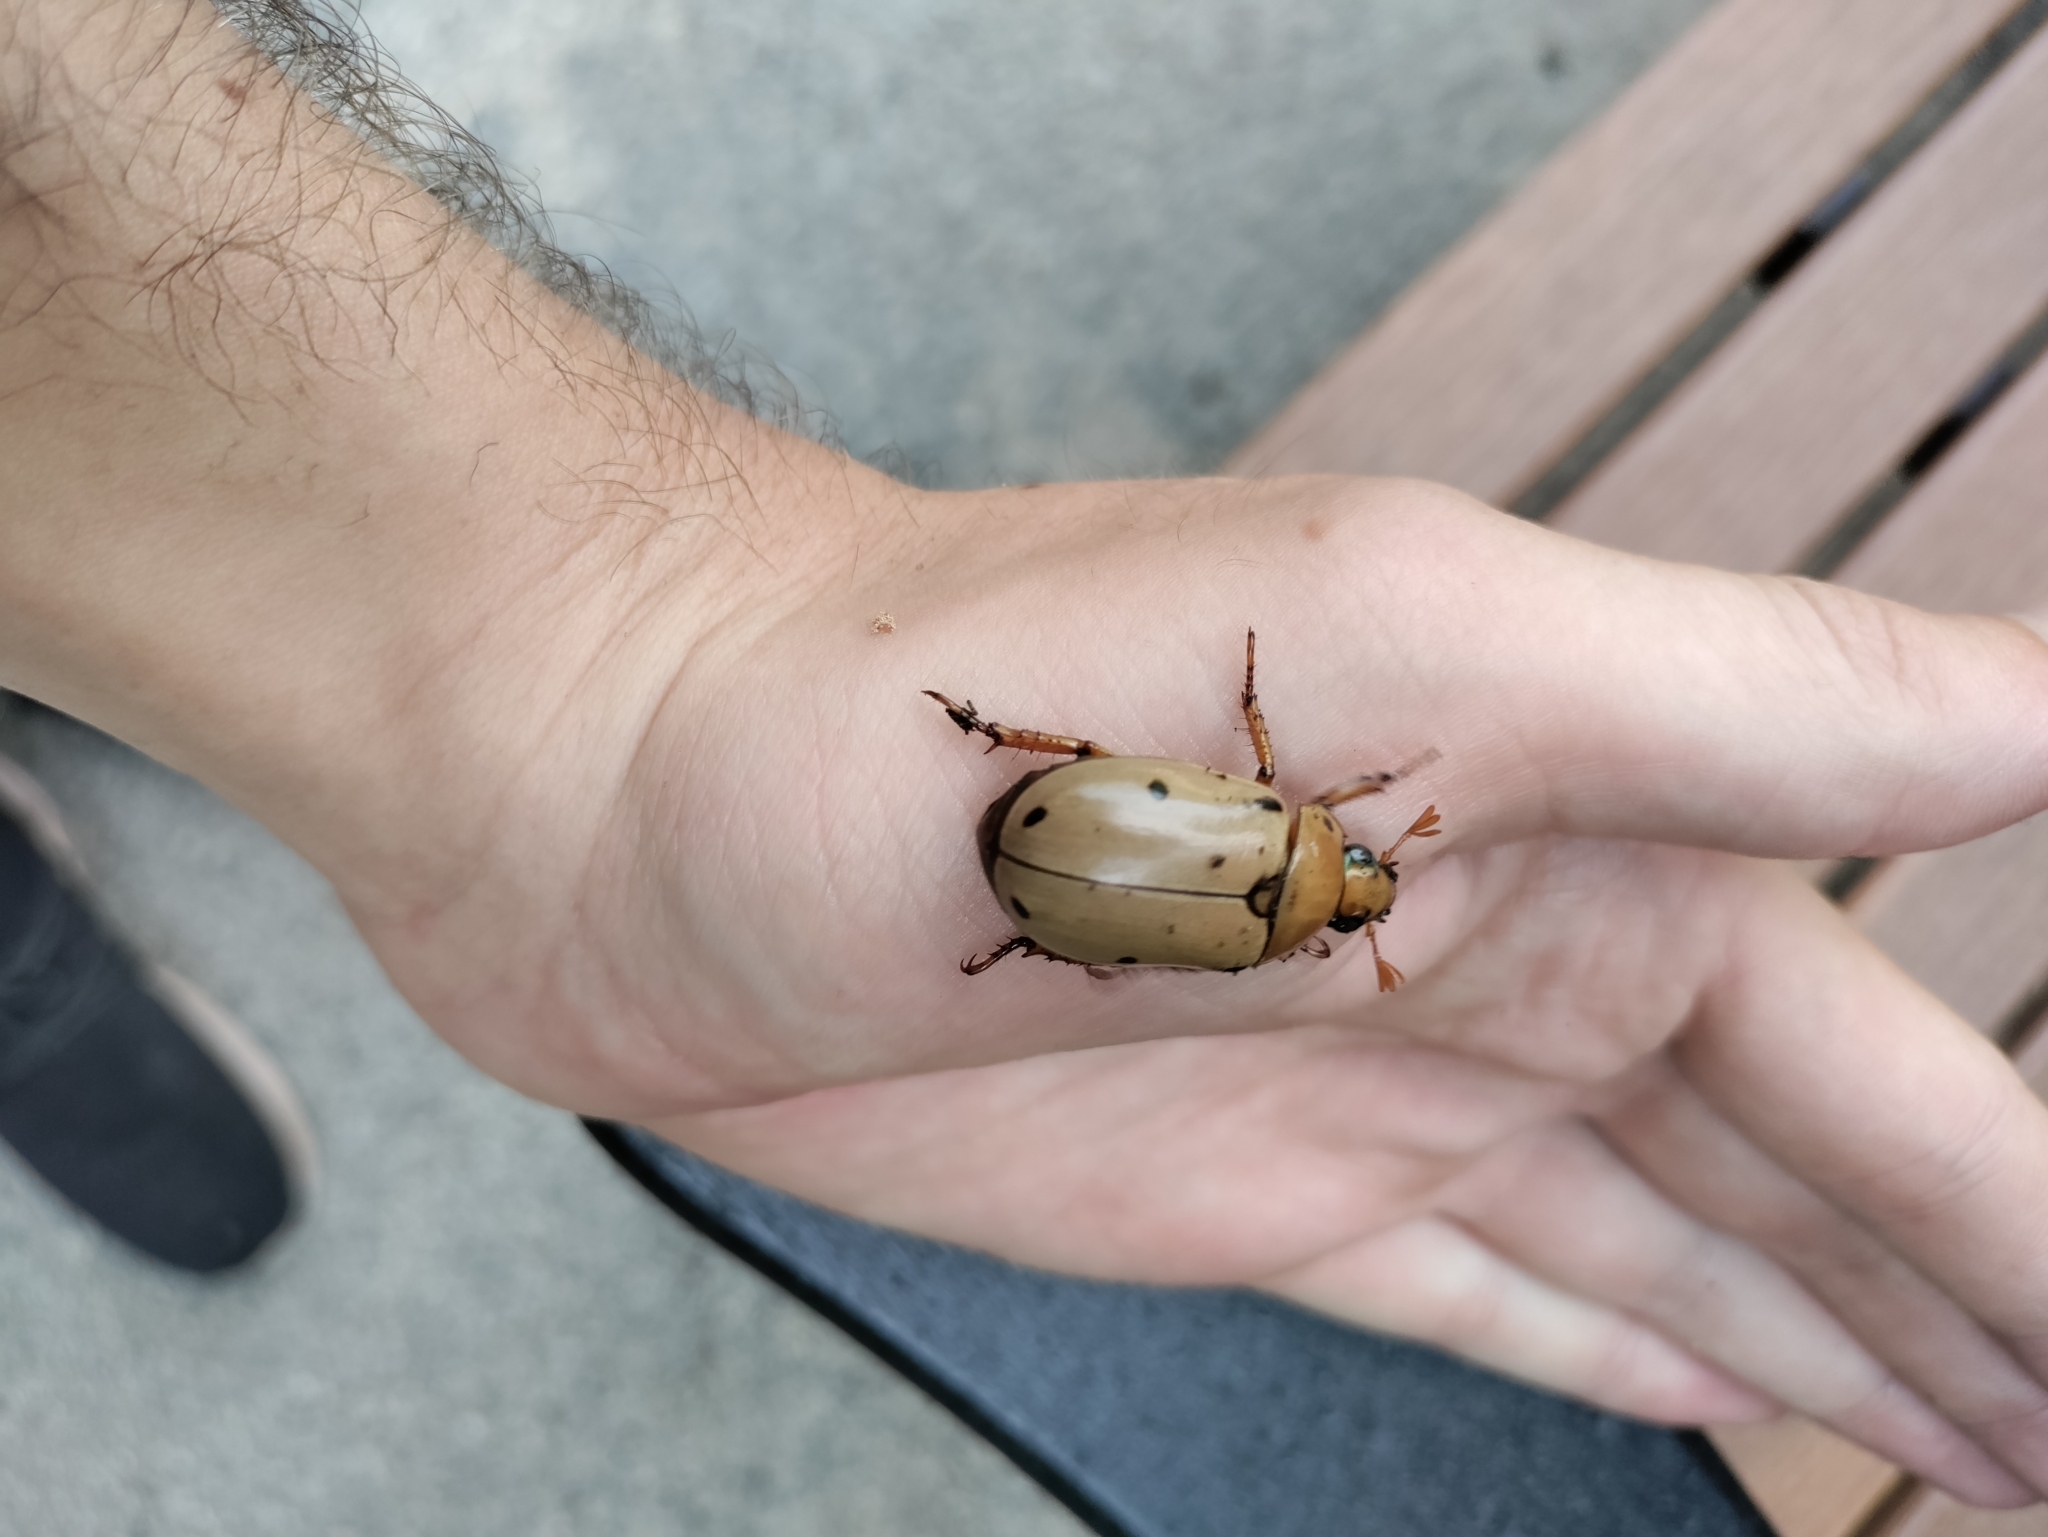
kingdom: Animalia
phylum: Arthropoda
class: Insecta
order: Coleoptera
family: Scarabaeidae
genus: Pelidnota
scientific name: Pelidnota punctata
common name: Grapevine beetle
